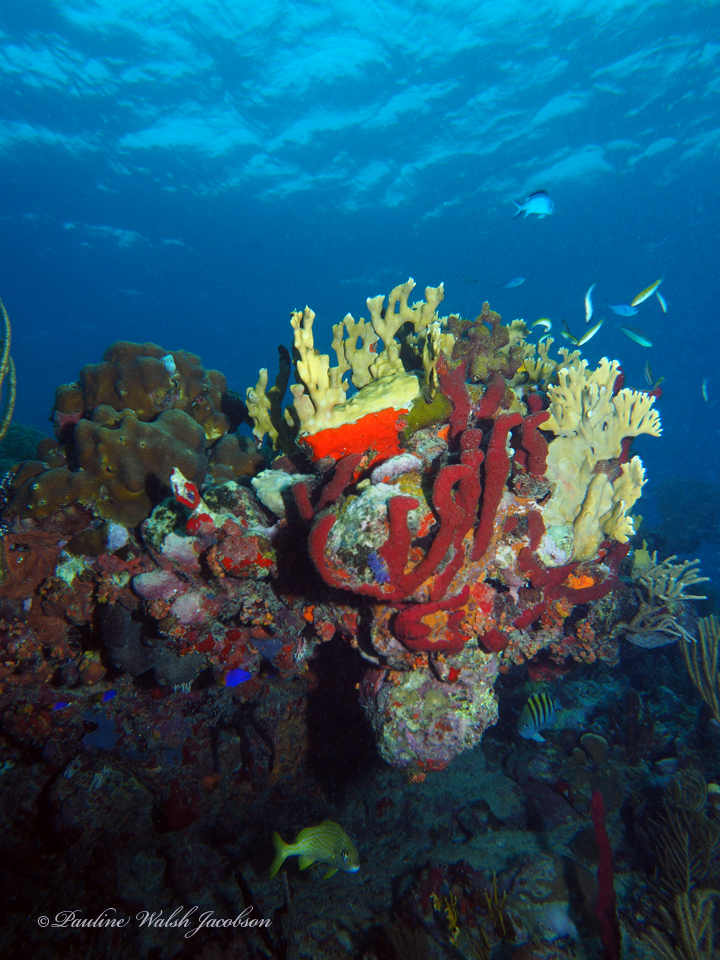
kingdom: Animalia
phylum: Chordata
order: Perciformes
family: Haemulidae
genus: Haemulon
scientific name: Haemulon flavolineatum
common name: French grunt
